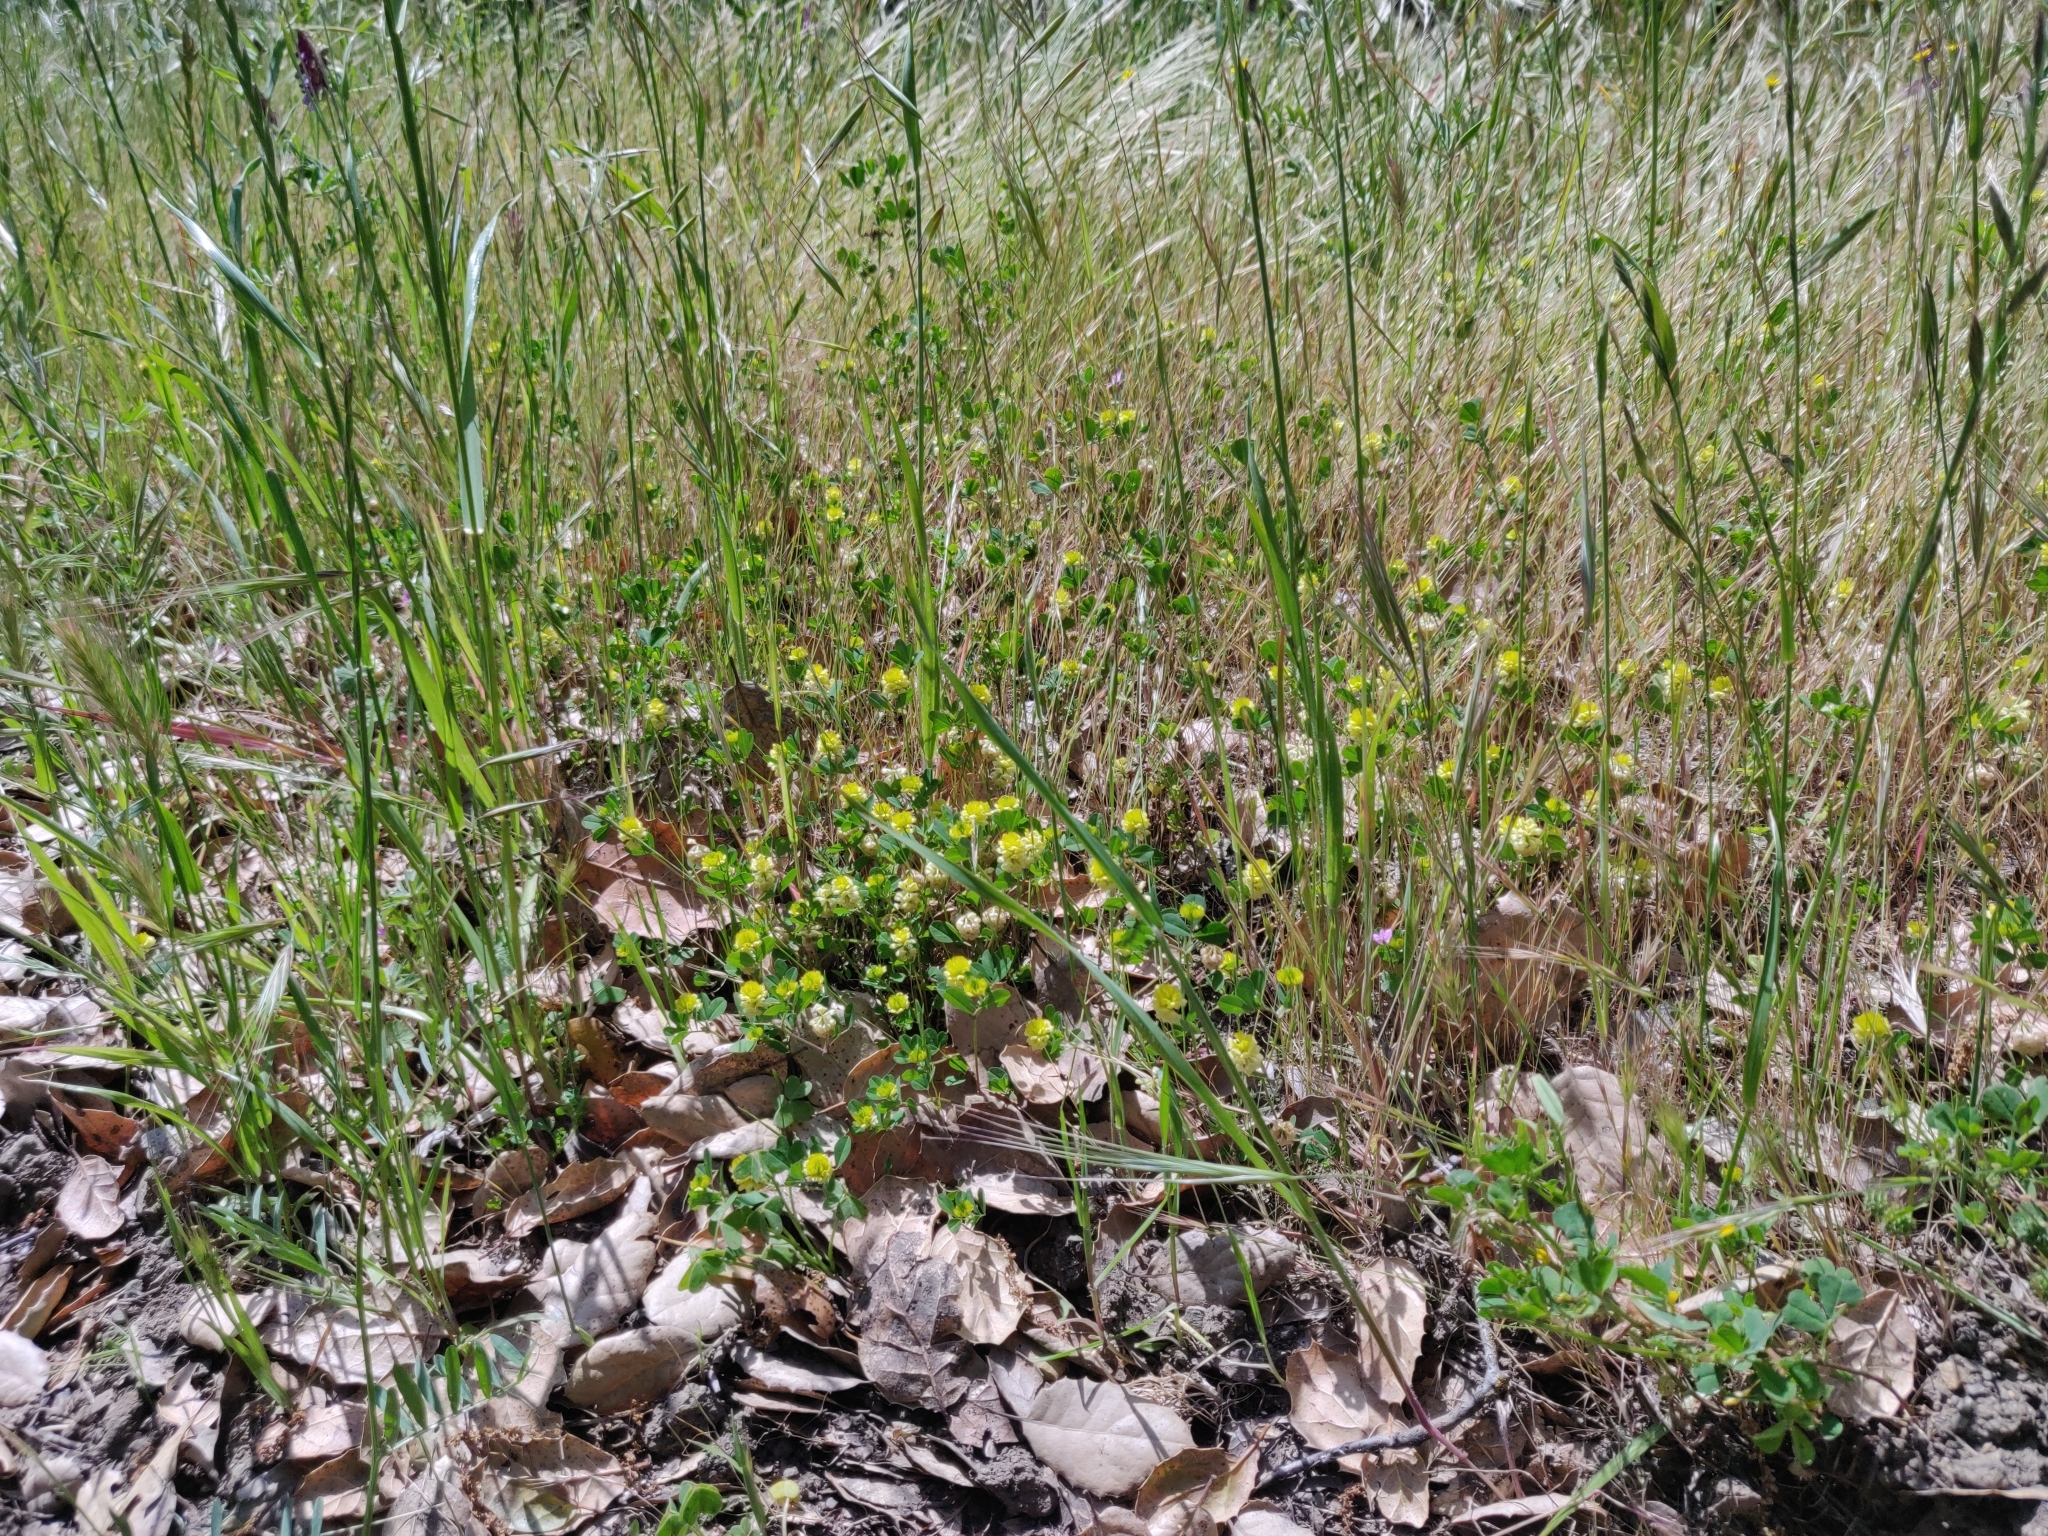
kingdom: Plantae
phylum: Tracheophyta
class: Magnoliopsida
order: Fabales
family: Fabaceae
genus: Trifolium
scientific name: Trifolium campestre
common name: Field clover
